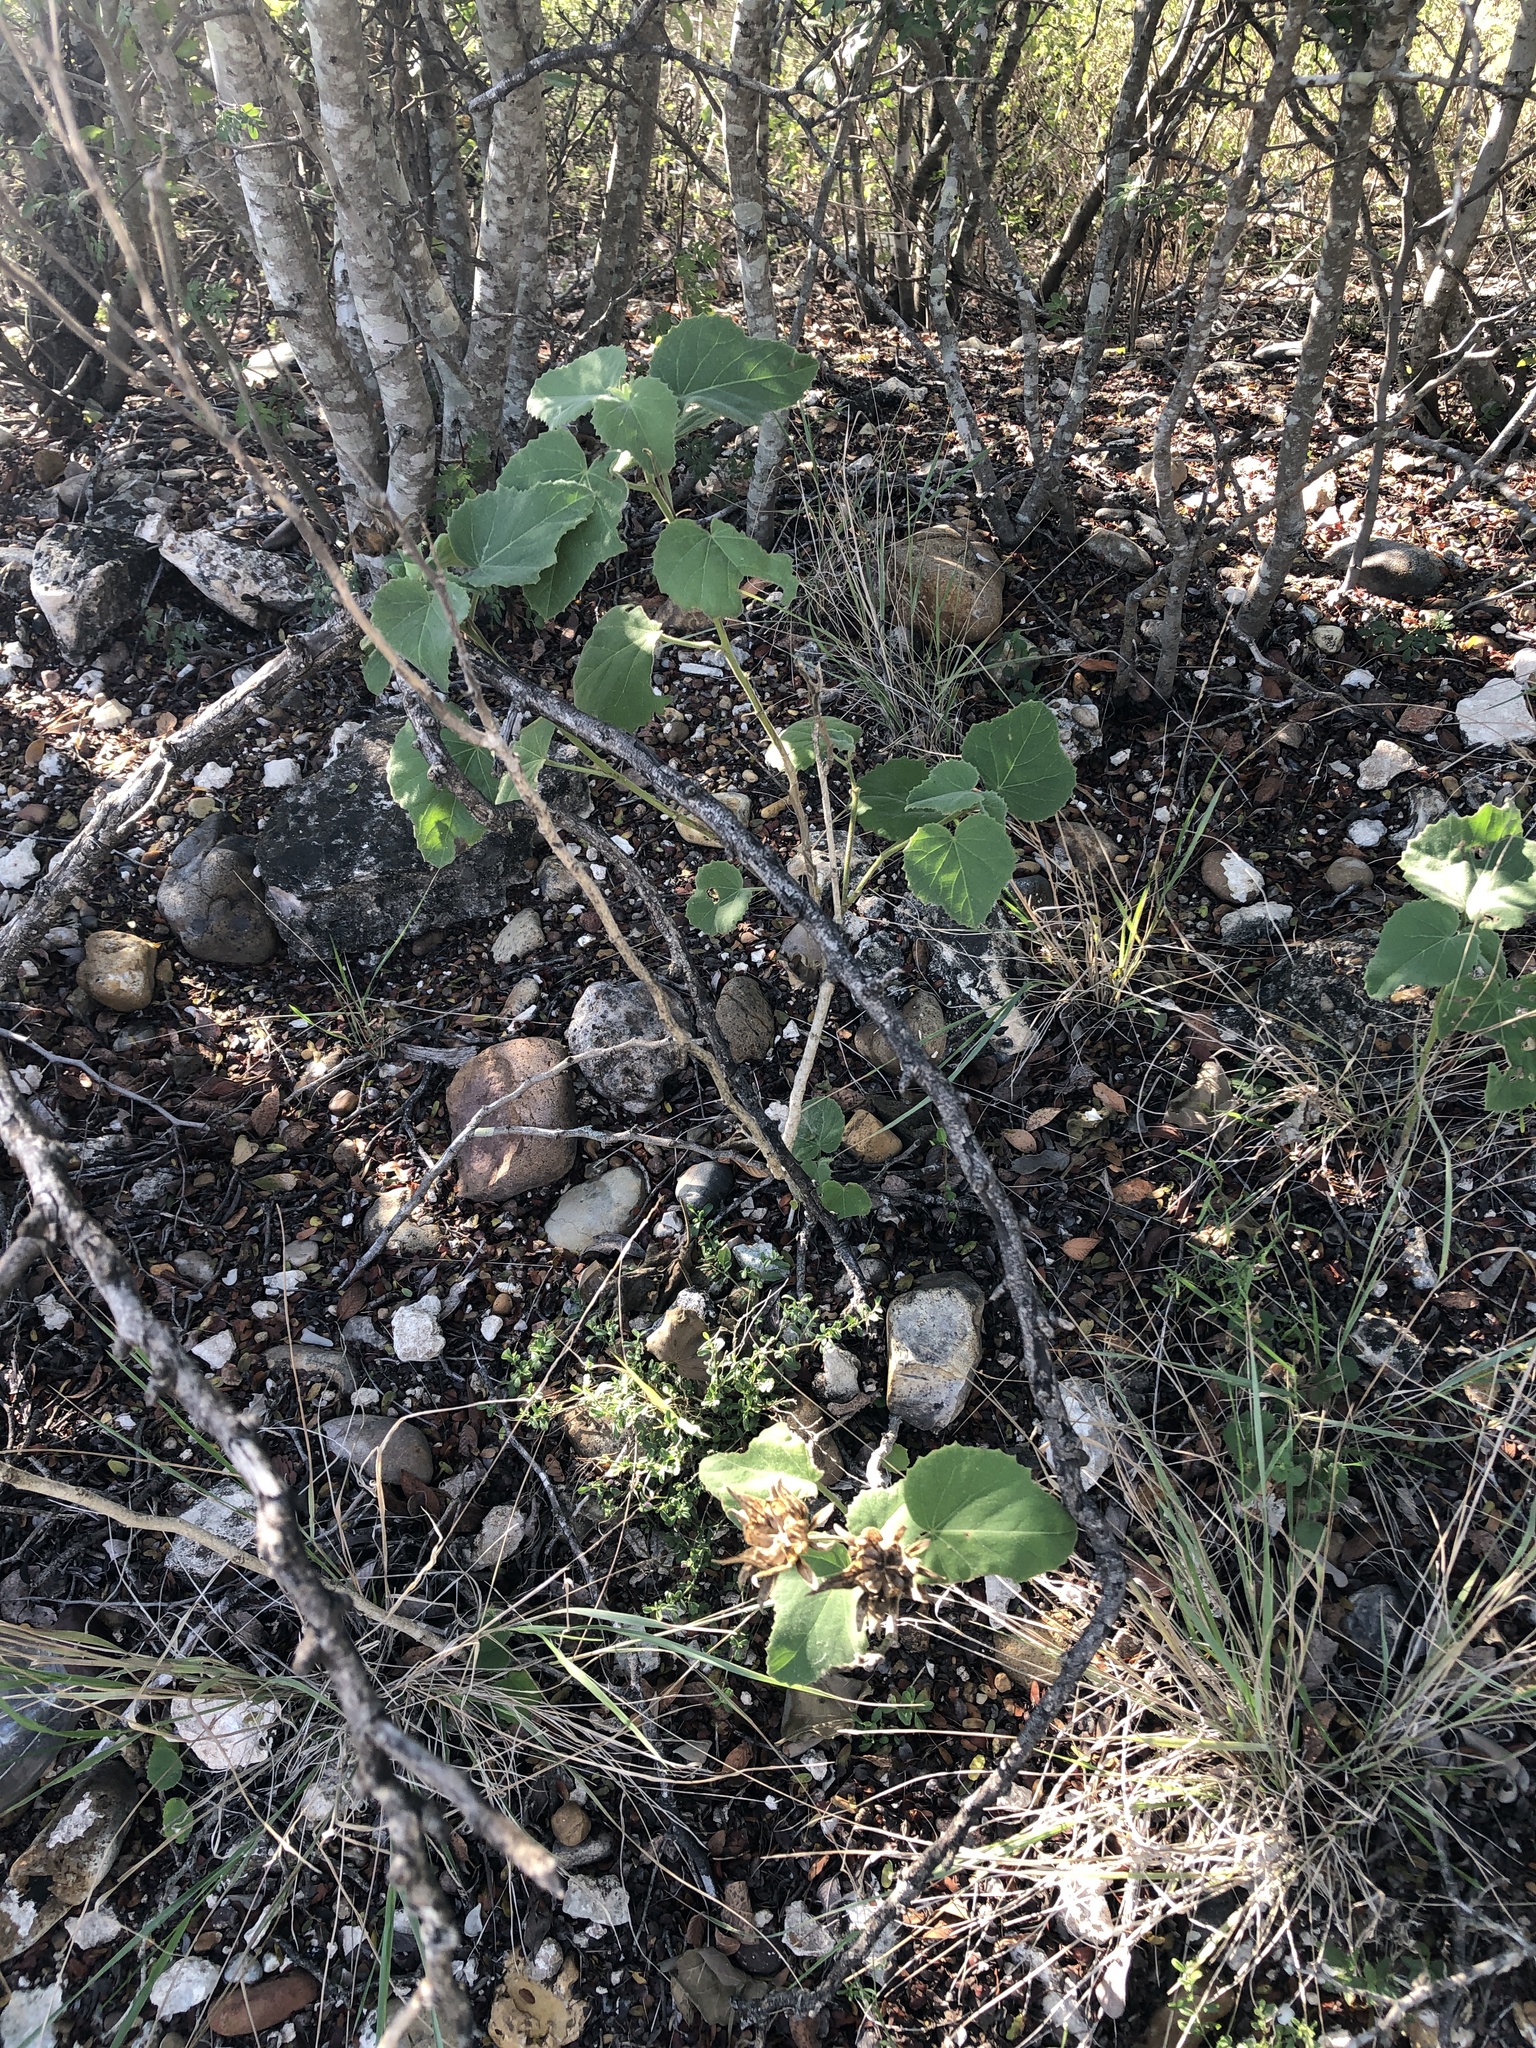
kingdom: Plantae
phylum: Tracheophyta
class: Magnoliopsida
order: Malvales
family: Malvaceae
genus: Hibiscus
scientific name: Hibiscus martianus
